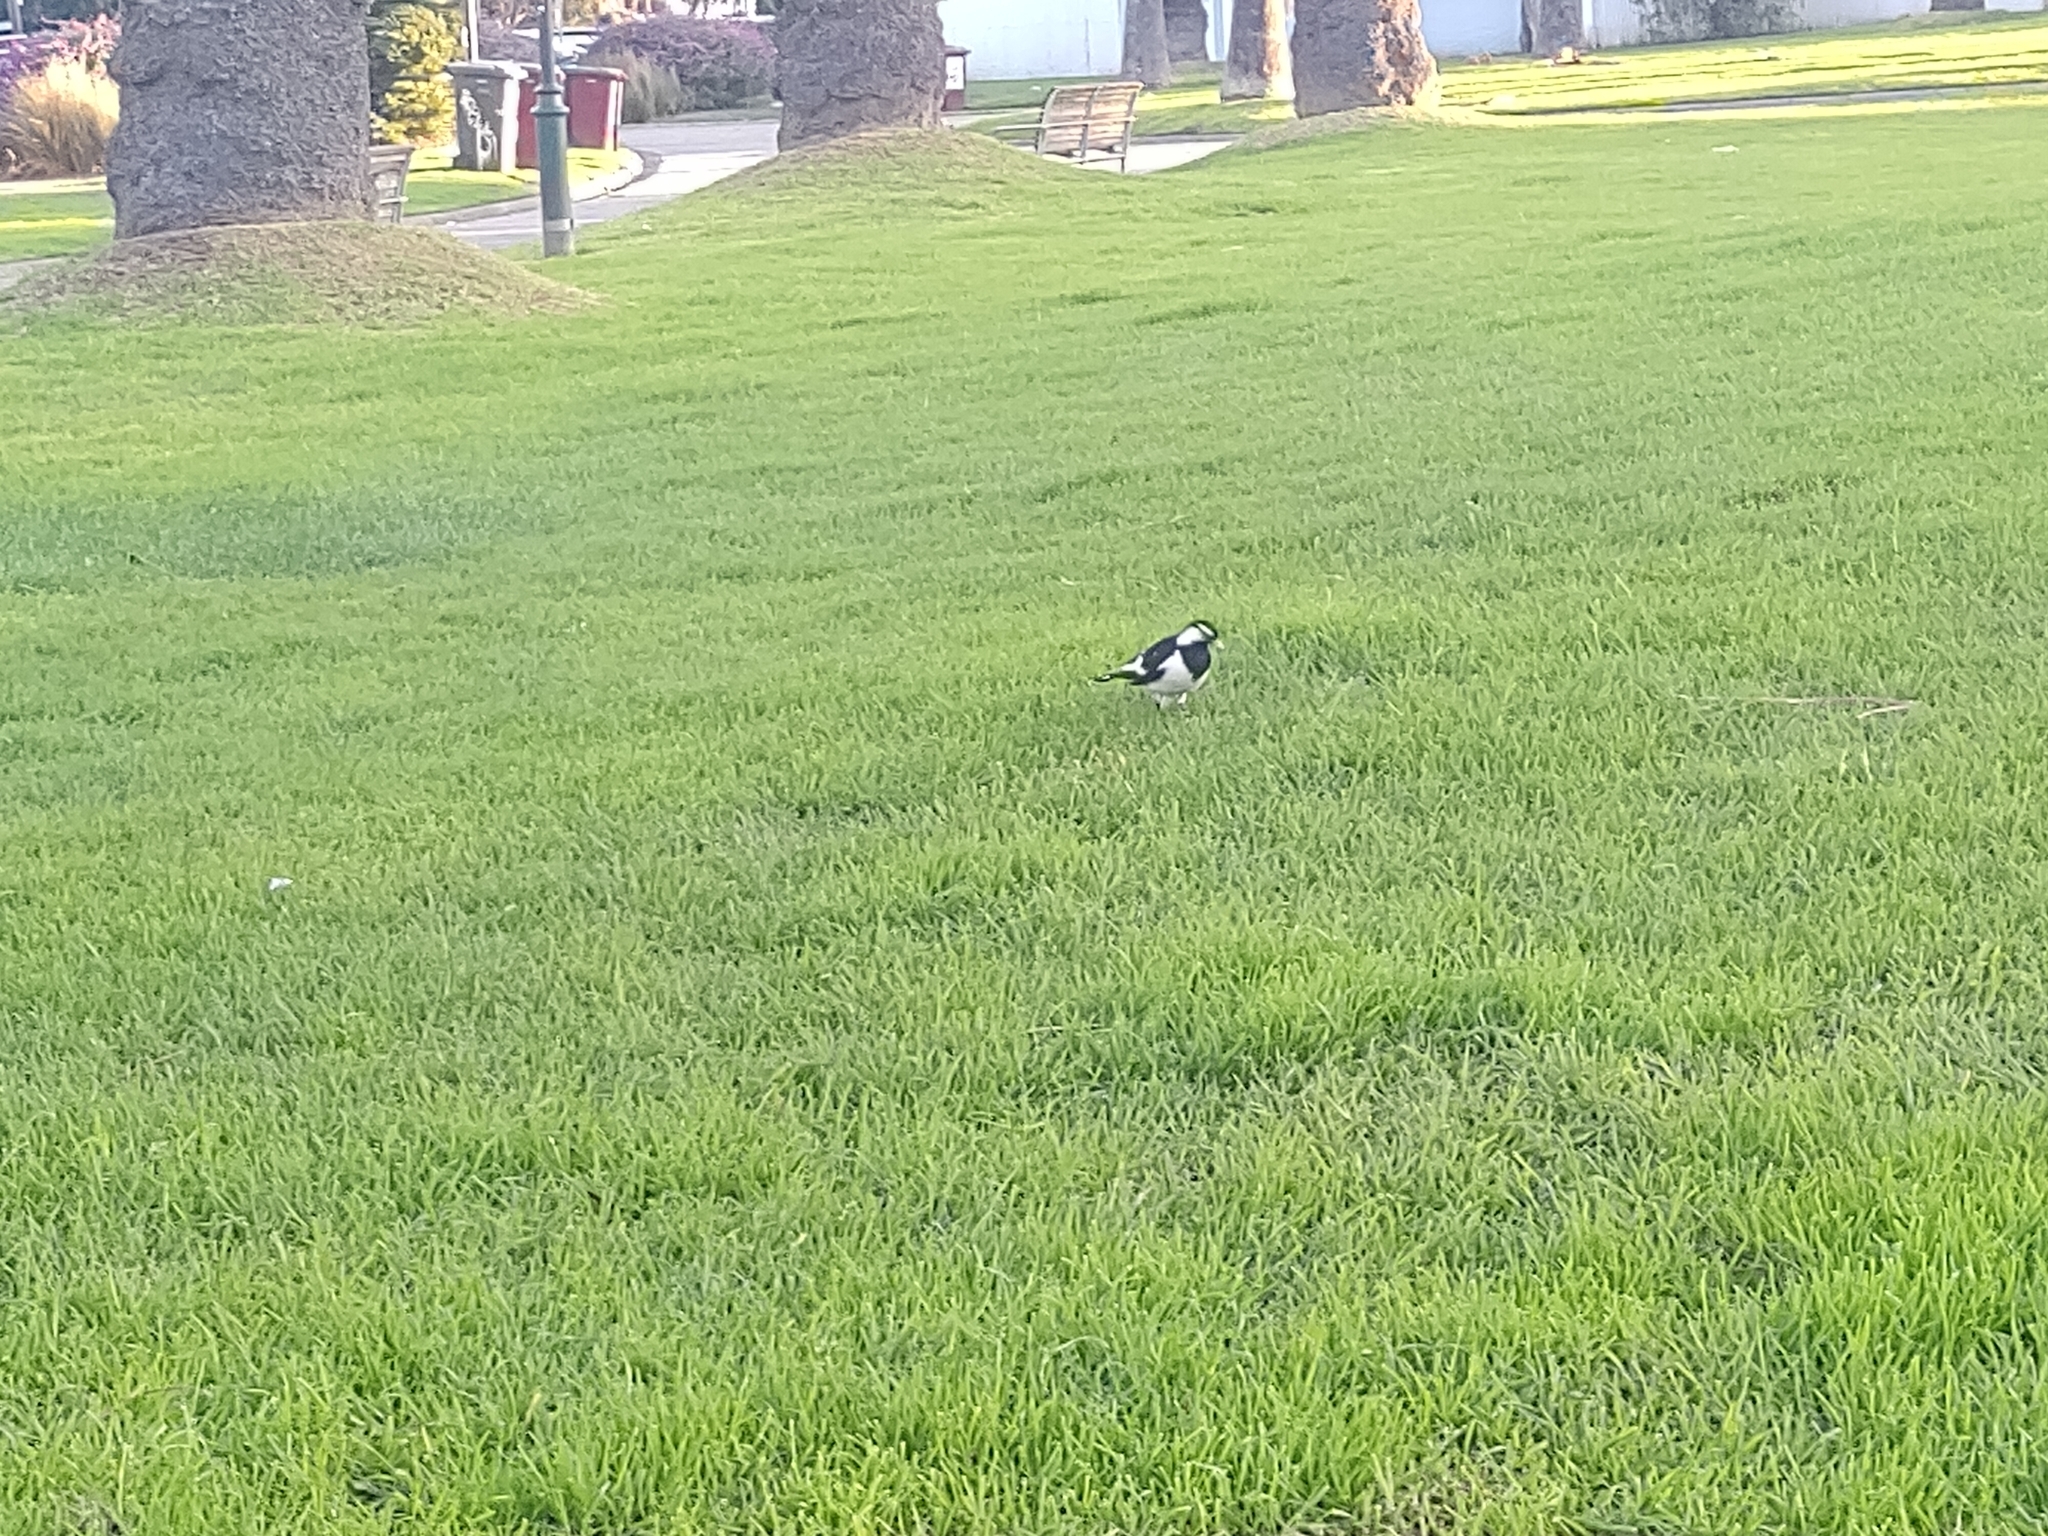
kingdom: Animalia
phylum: Chordata
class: Aves
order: Passeriformes
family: Monarchidae
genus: Grallina
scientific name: Grallina cyanoleuca
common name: Magpie-lark
